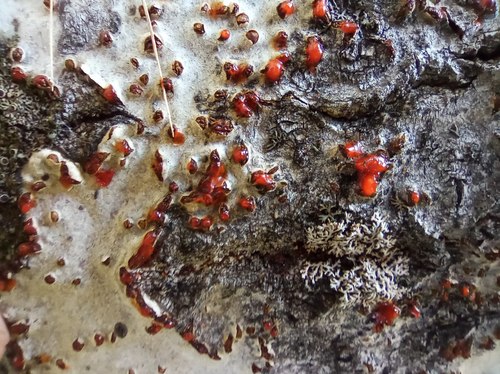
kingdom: Fungi
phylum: Ascomycota
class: Sordariomycetes
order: Hypocreales
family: Nectriaceae
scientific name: Nectriaceae
